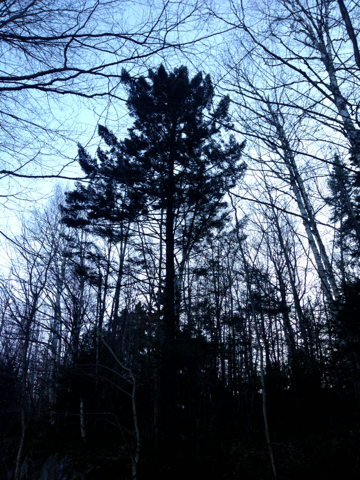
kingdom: Plantae
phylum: Tracheophyta
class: Pinopsida
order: Pinales
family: Pinaceae
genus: Picea
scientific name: Picea rubens
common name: Red spruce
